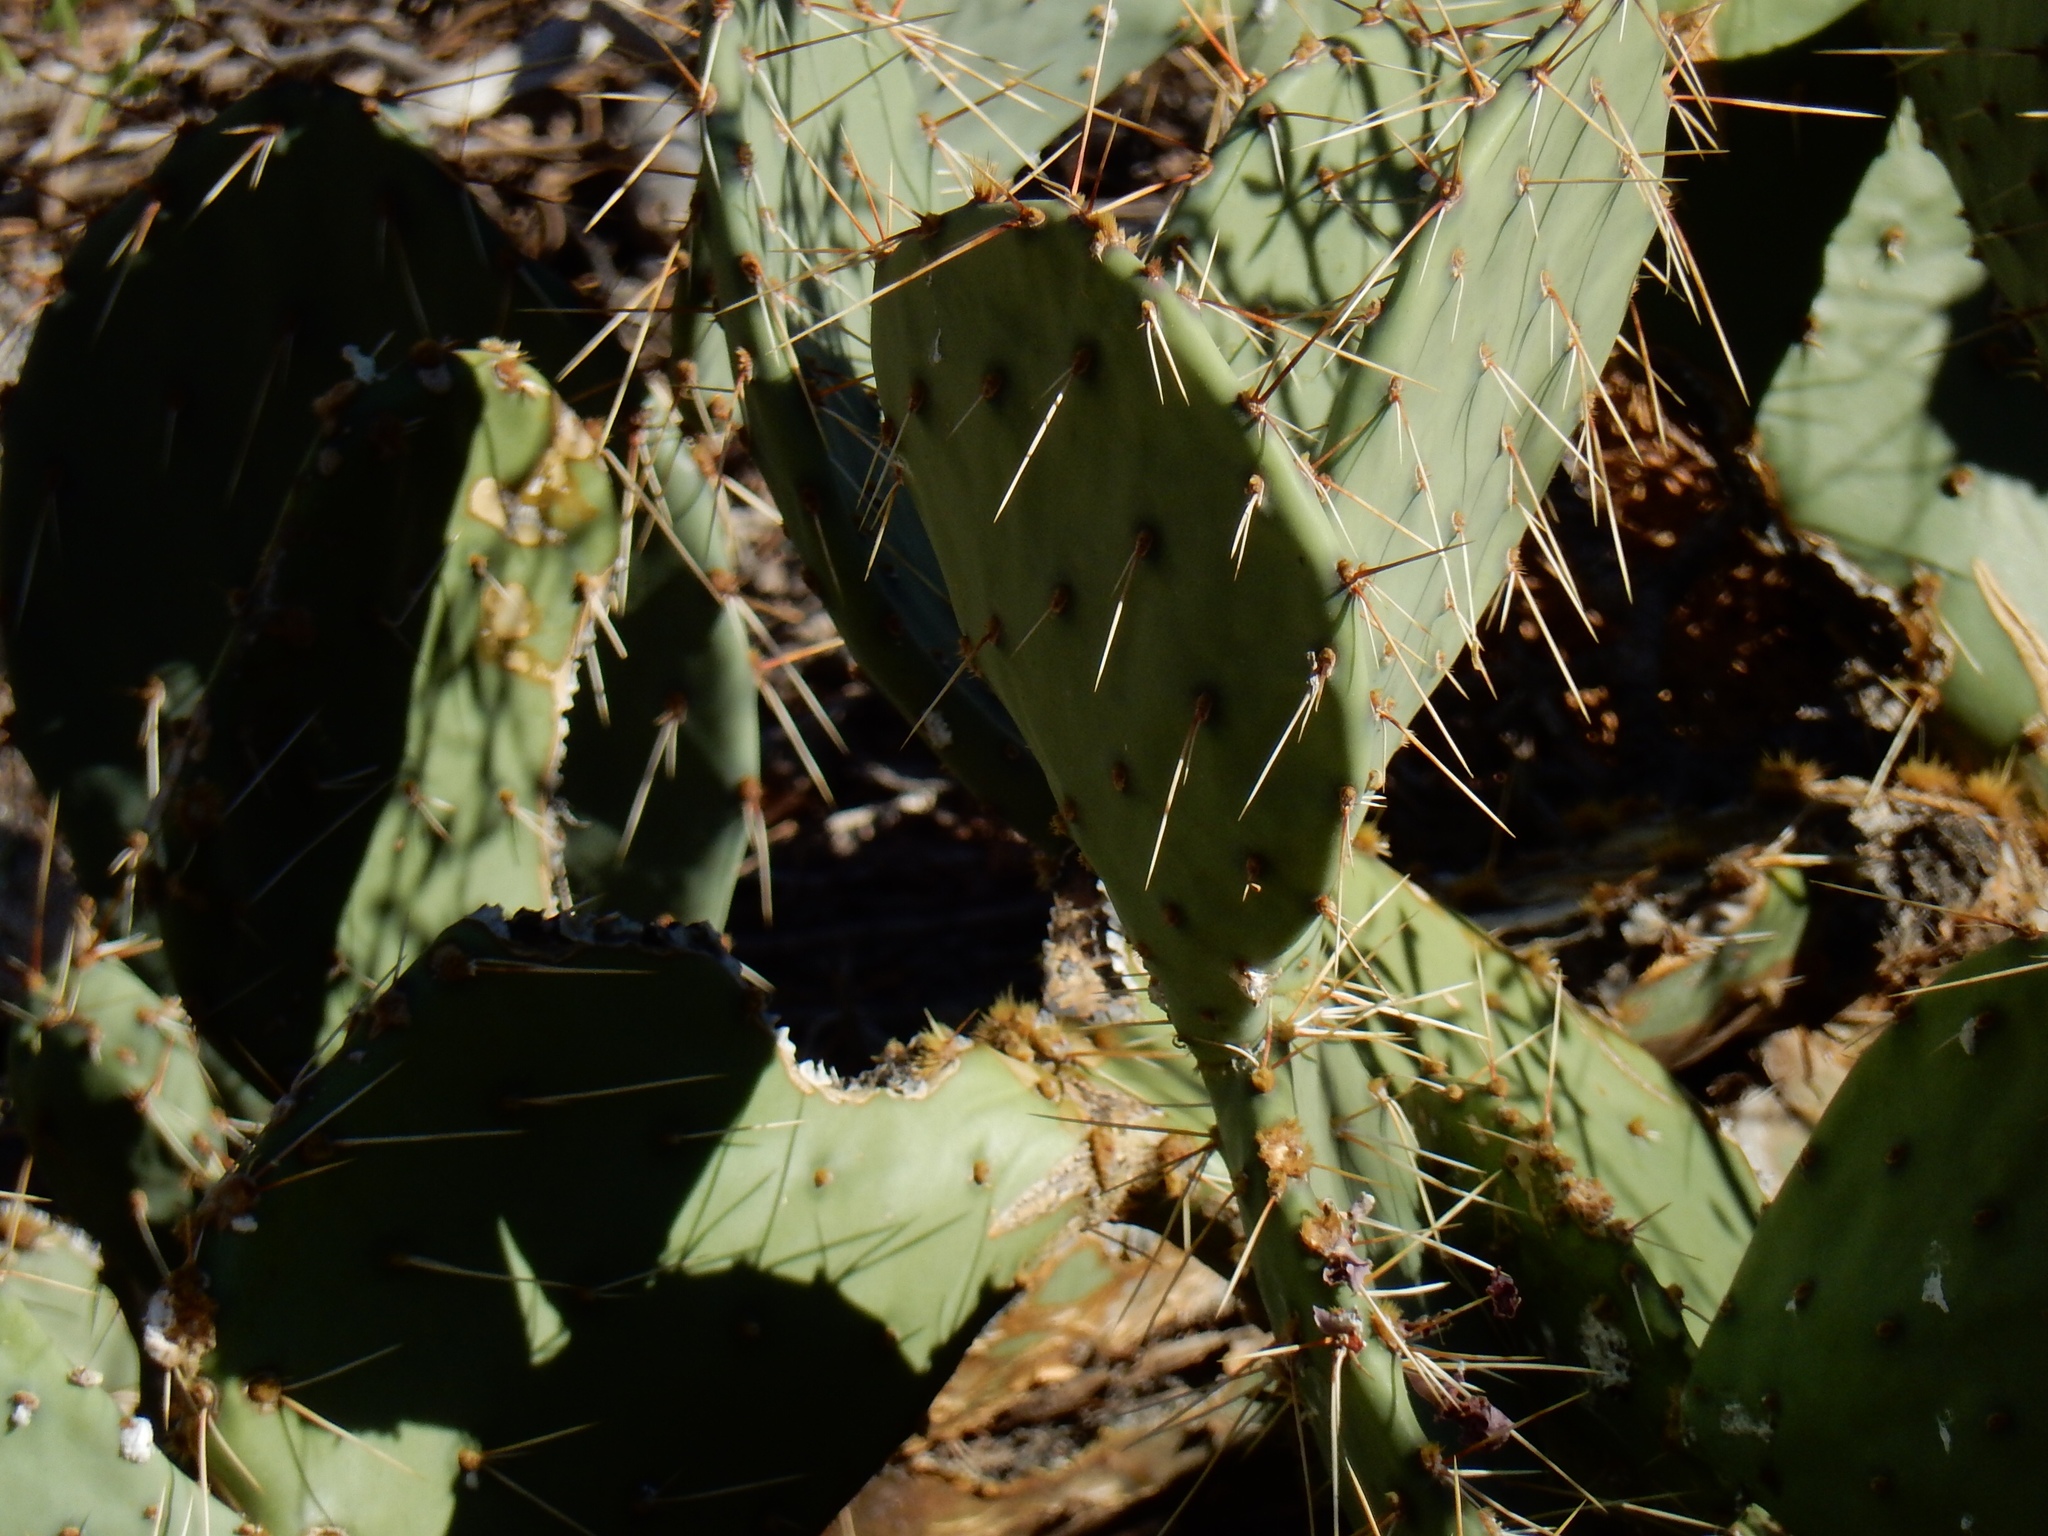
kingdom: Plantae
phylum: Tracheophyta
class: Magnoliopsida
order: Caryophyllales
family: Cactaceae
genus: Opuntia
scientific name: Opuntia phaeacantha
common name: New mexico prickly-pear
